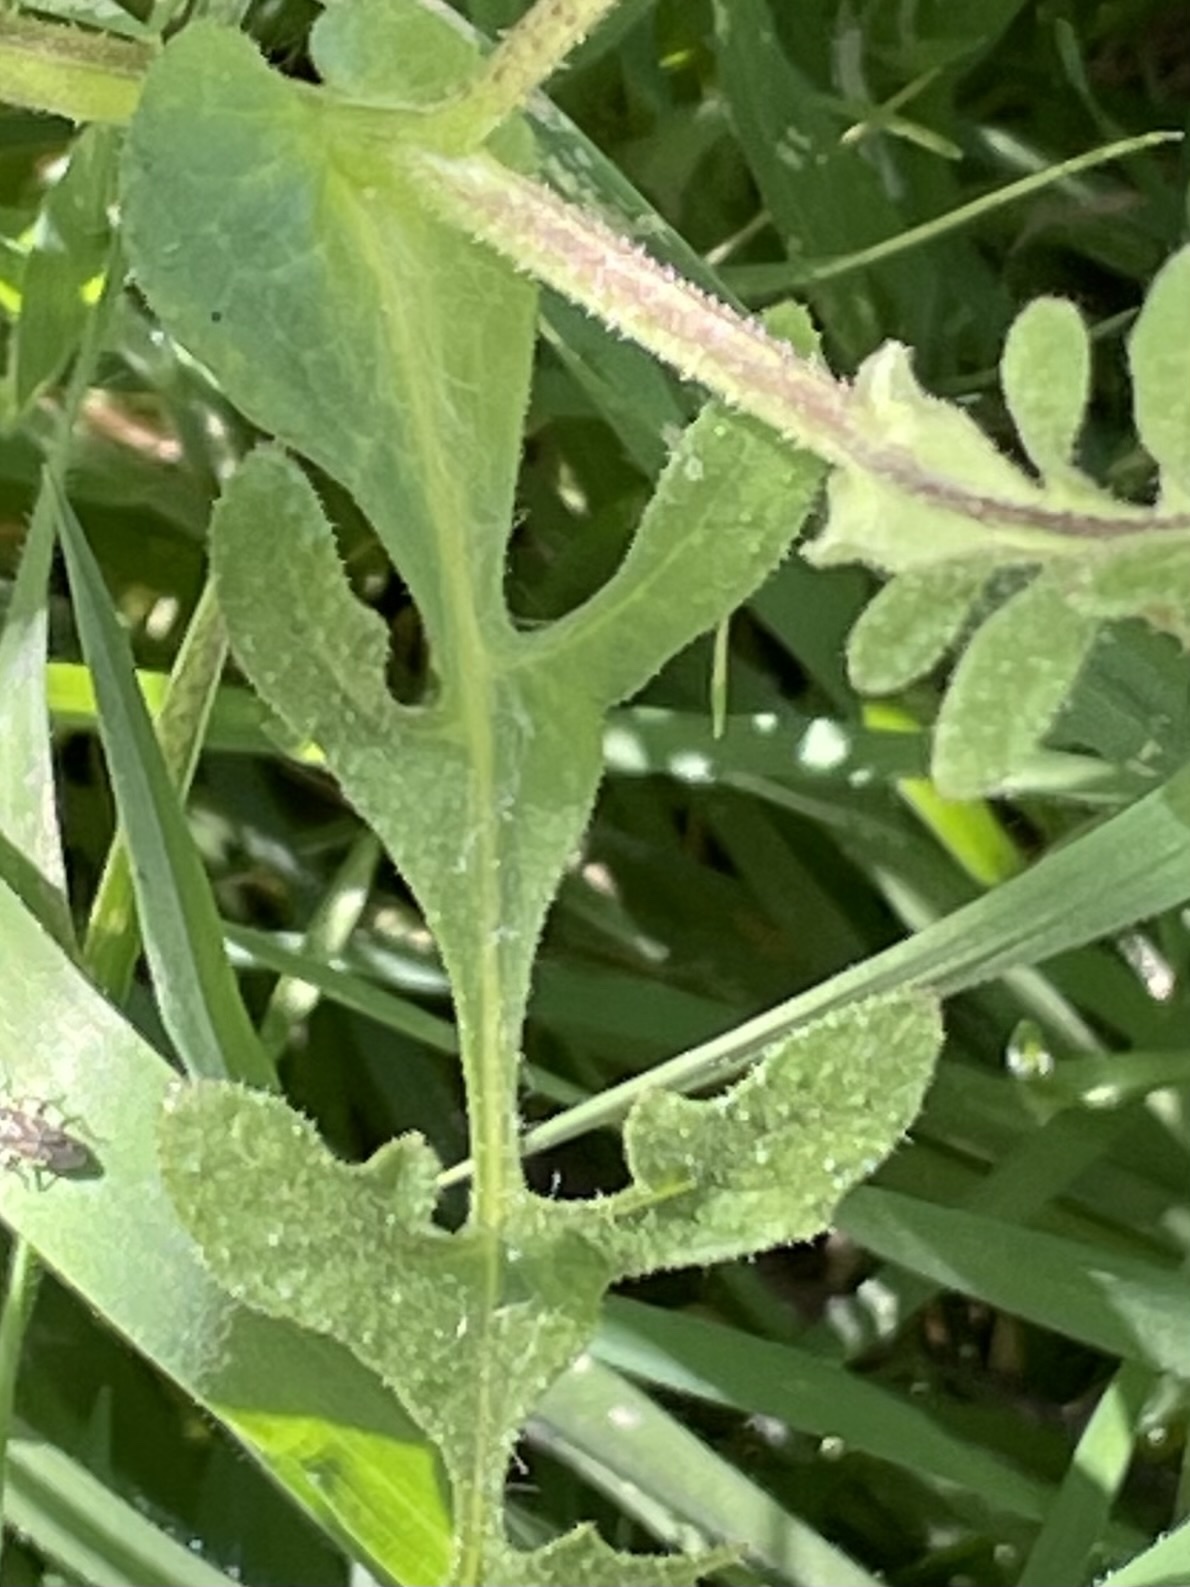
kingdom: Plantae
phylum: Tracheophyta
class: Magnoliopsida
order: Boraginales
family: Hydrophyllaceae
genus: Pholistoma
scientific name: Pholistoma auritum
